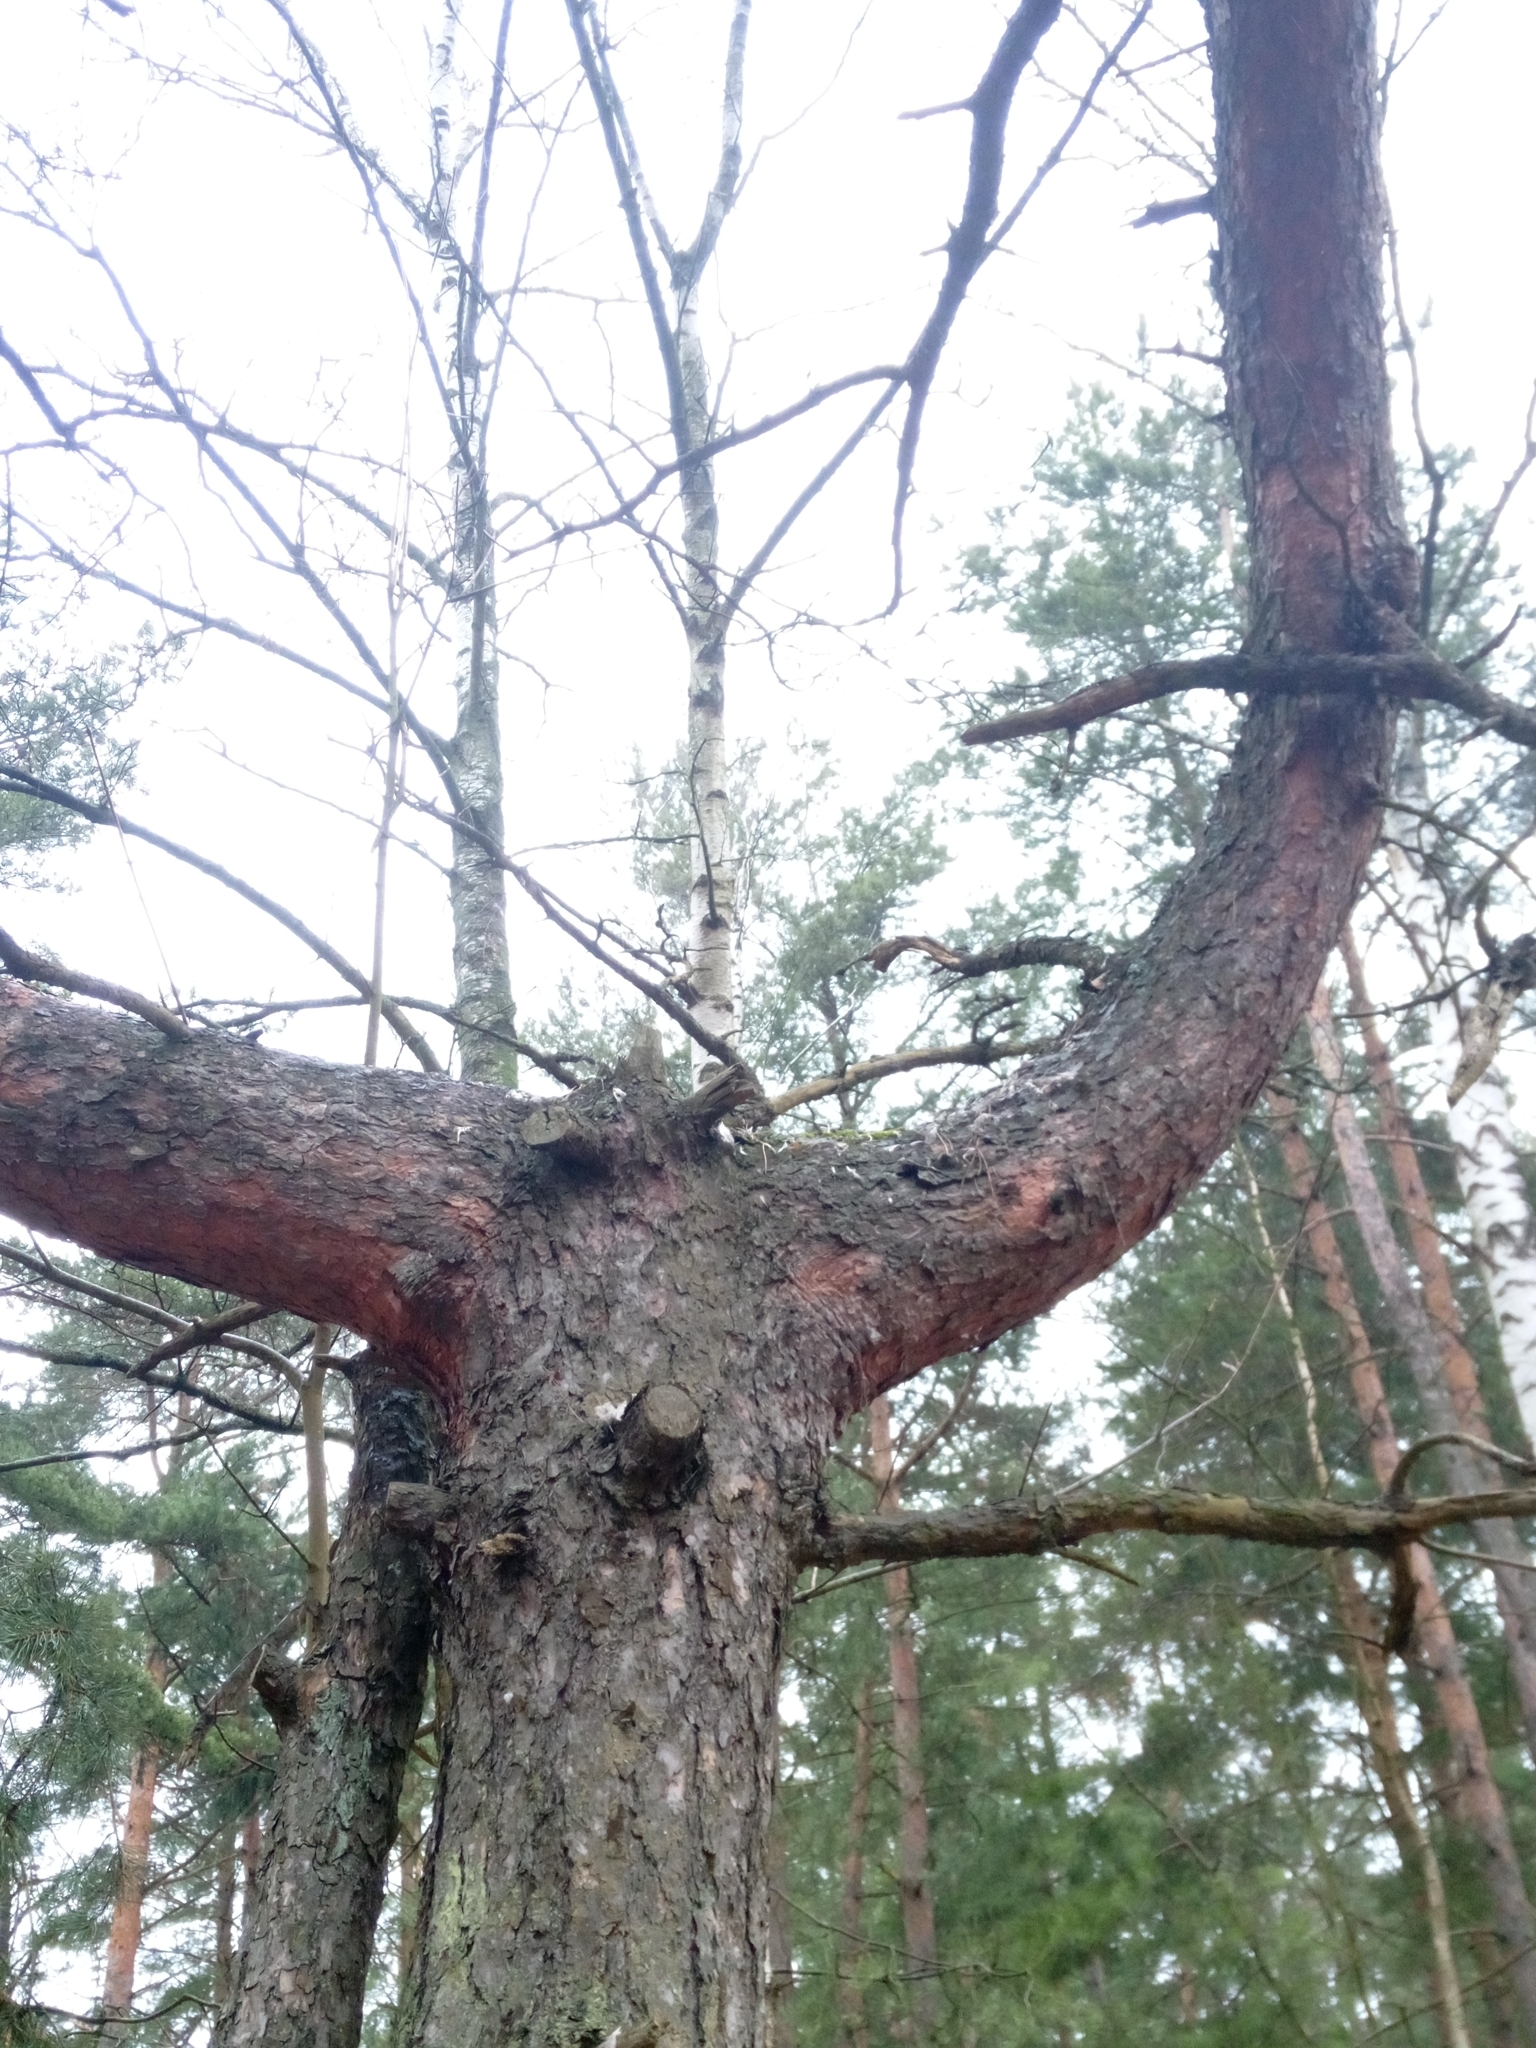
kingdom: Plantae
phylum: Tracheophyta
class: Pinopsida
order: Pinales
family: Pinaceae
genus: Pinus
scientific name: Pinus sylvestris
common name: Scots pine
